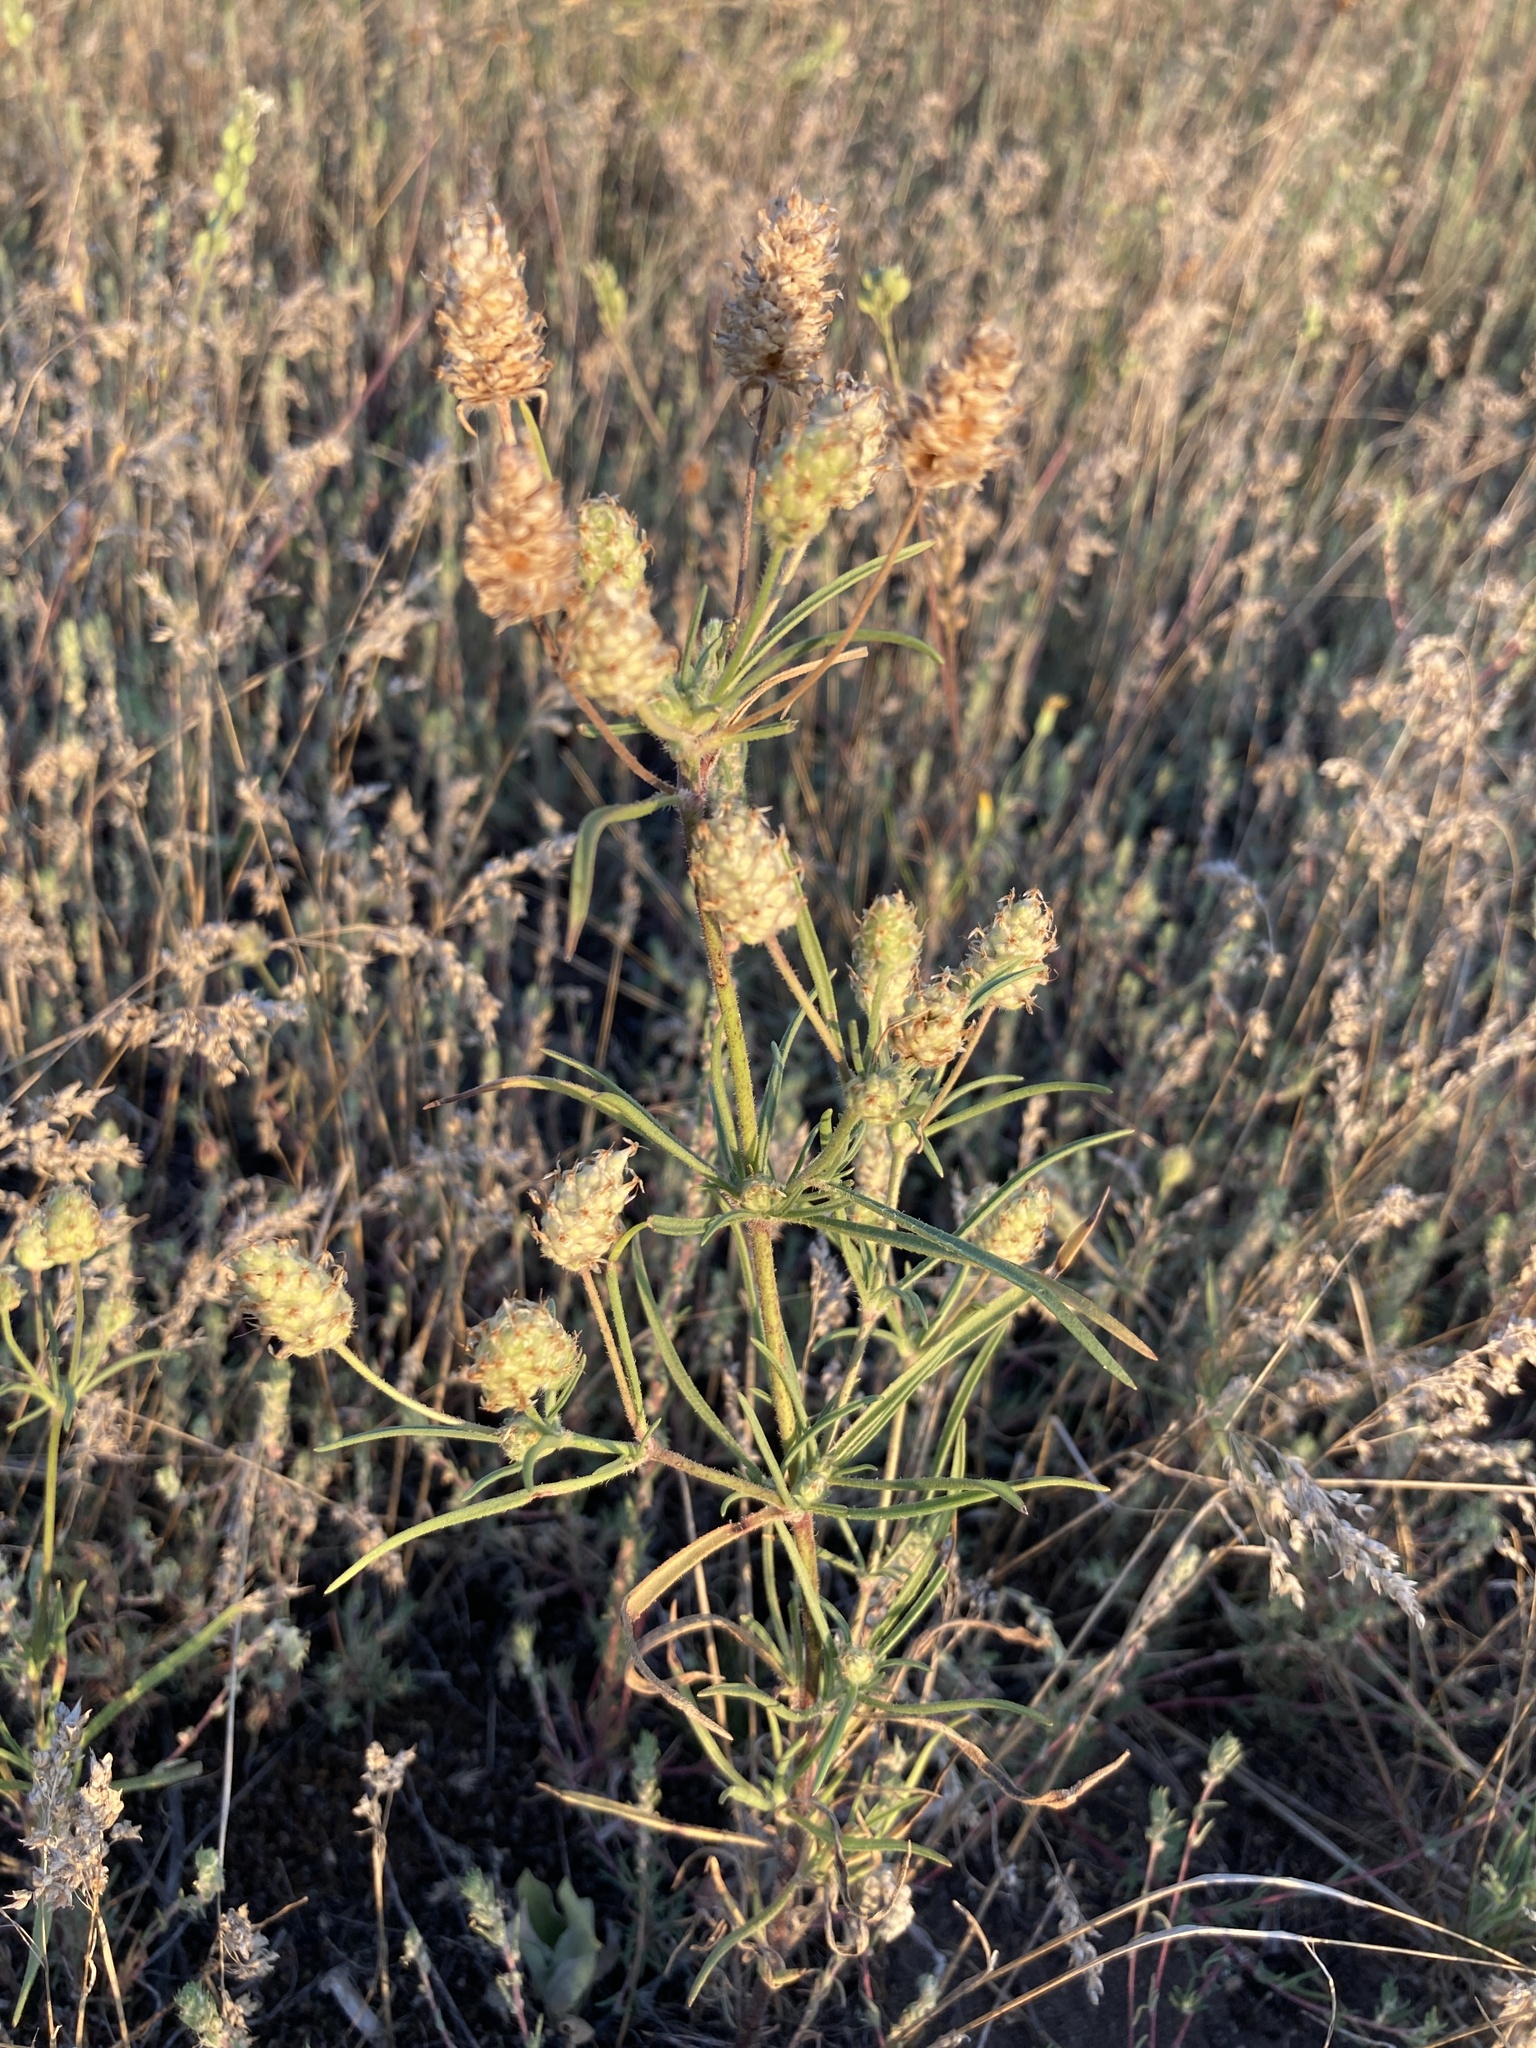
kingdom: Plantae
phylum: Tracheophyta
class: Magnoliopsida
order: Lamiales
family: Plantaginaceae
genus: Plantago
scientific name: Plantago arenaria
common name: Branched plantain
